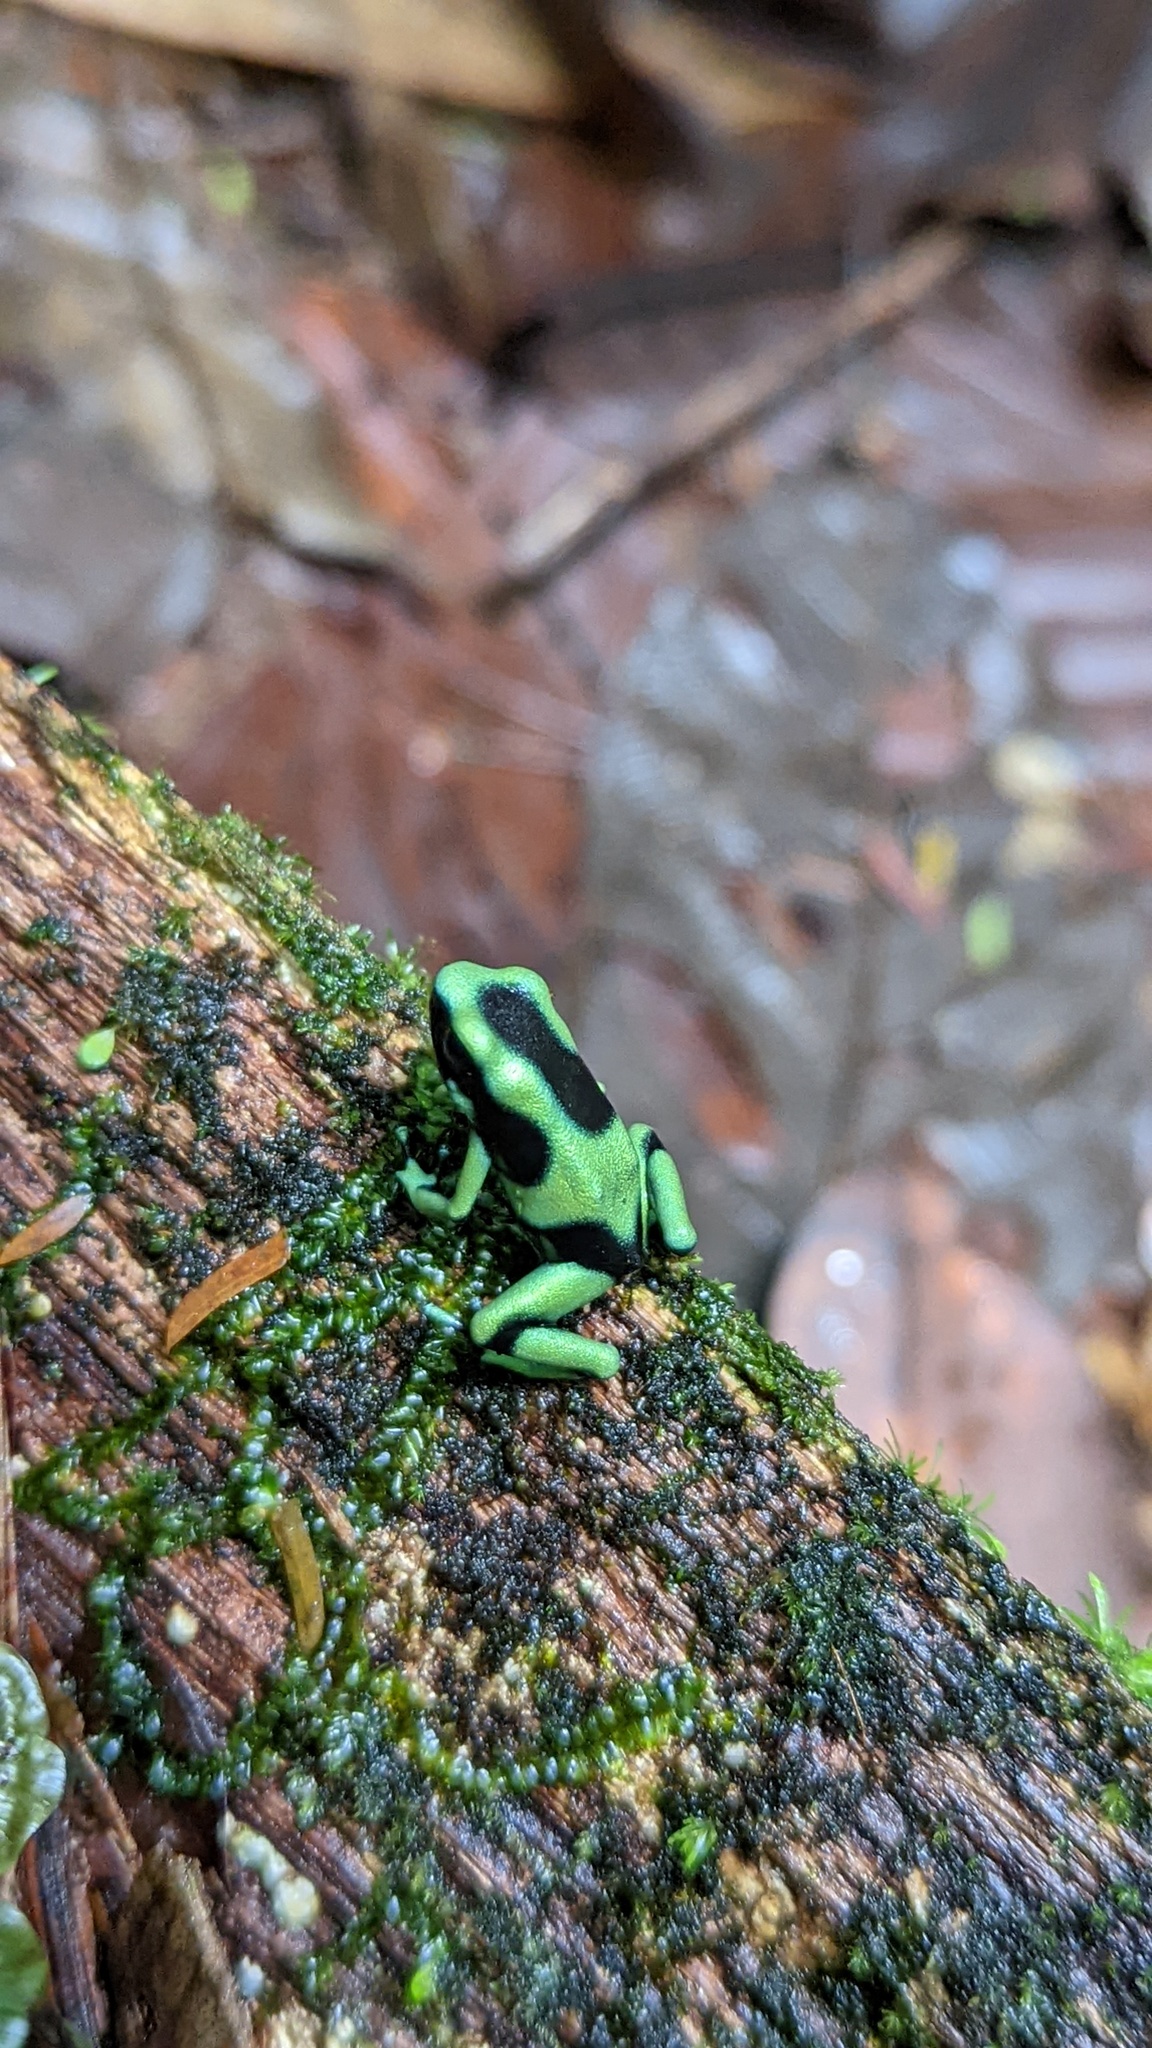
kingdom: Animalia
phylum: Chordata
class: Amphibia
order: Anura
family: Dendrobatidae
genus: Dendrobates
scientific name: Dendrobates auratus
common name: Green and black poison dart frog
